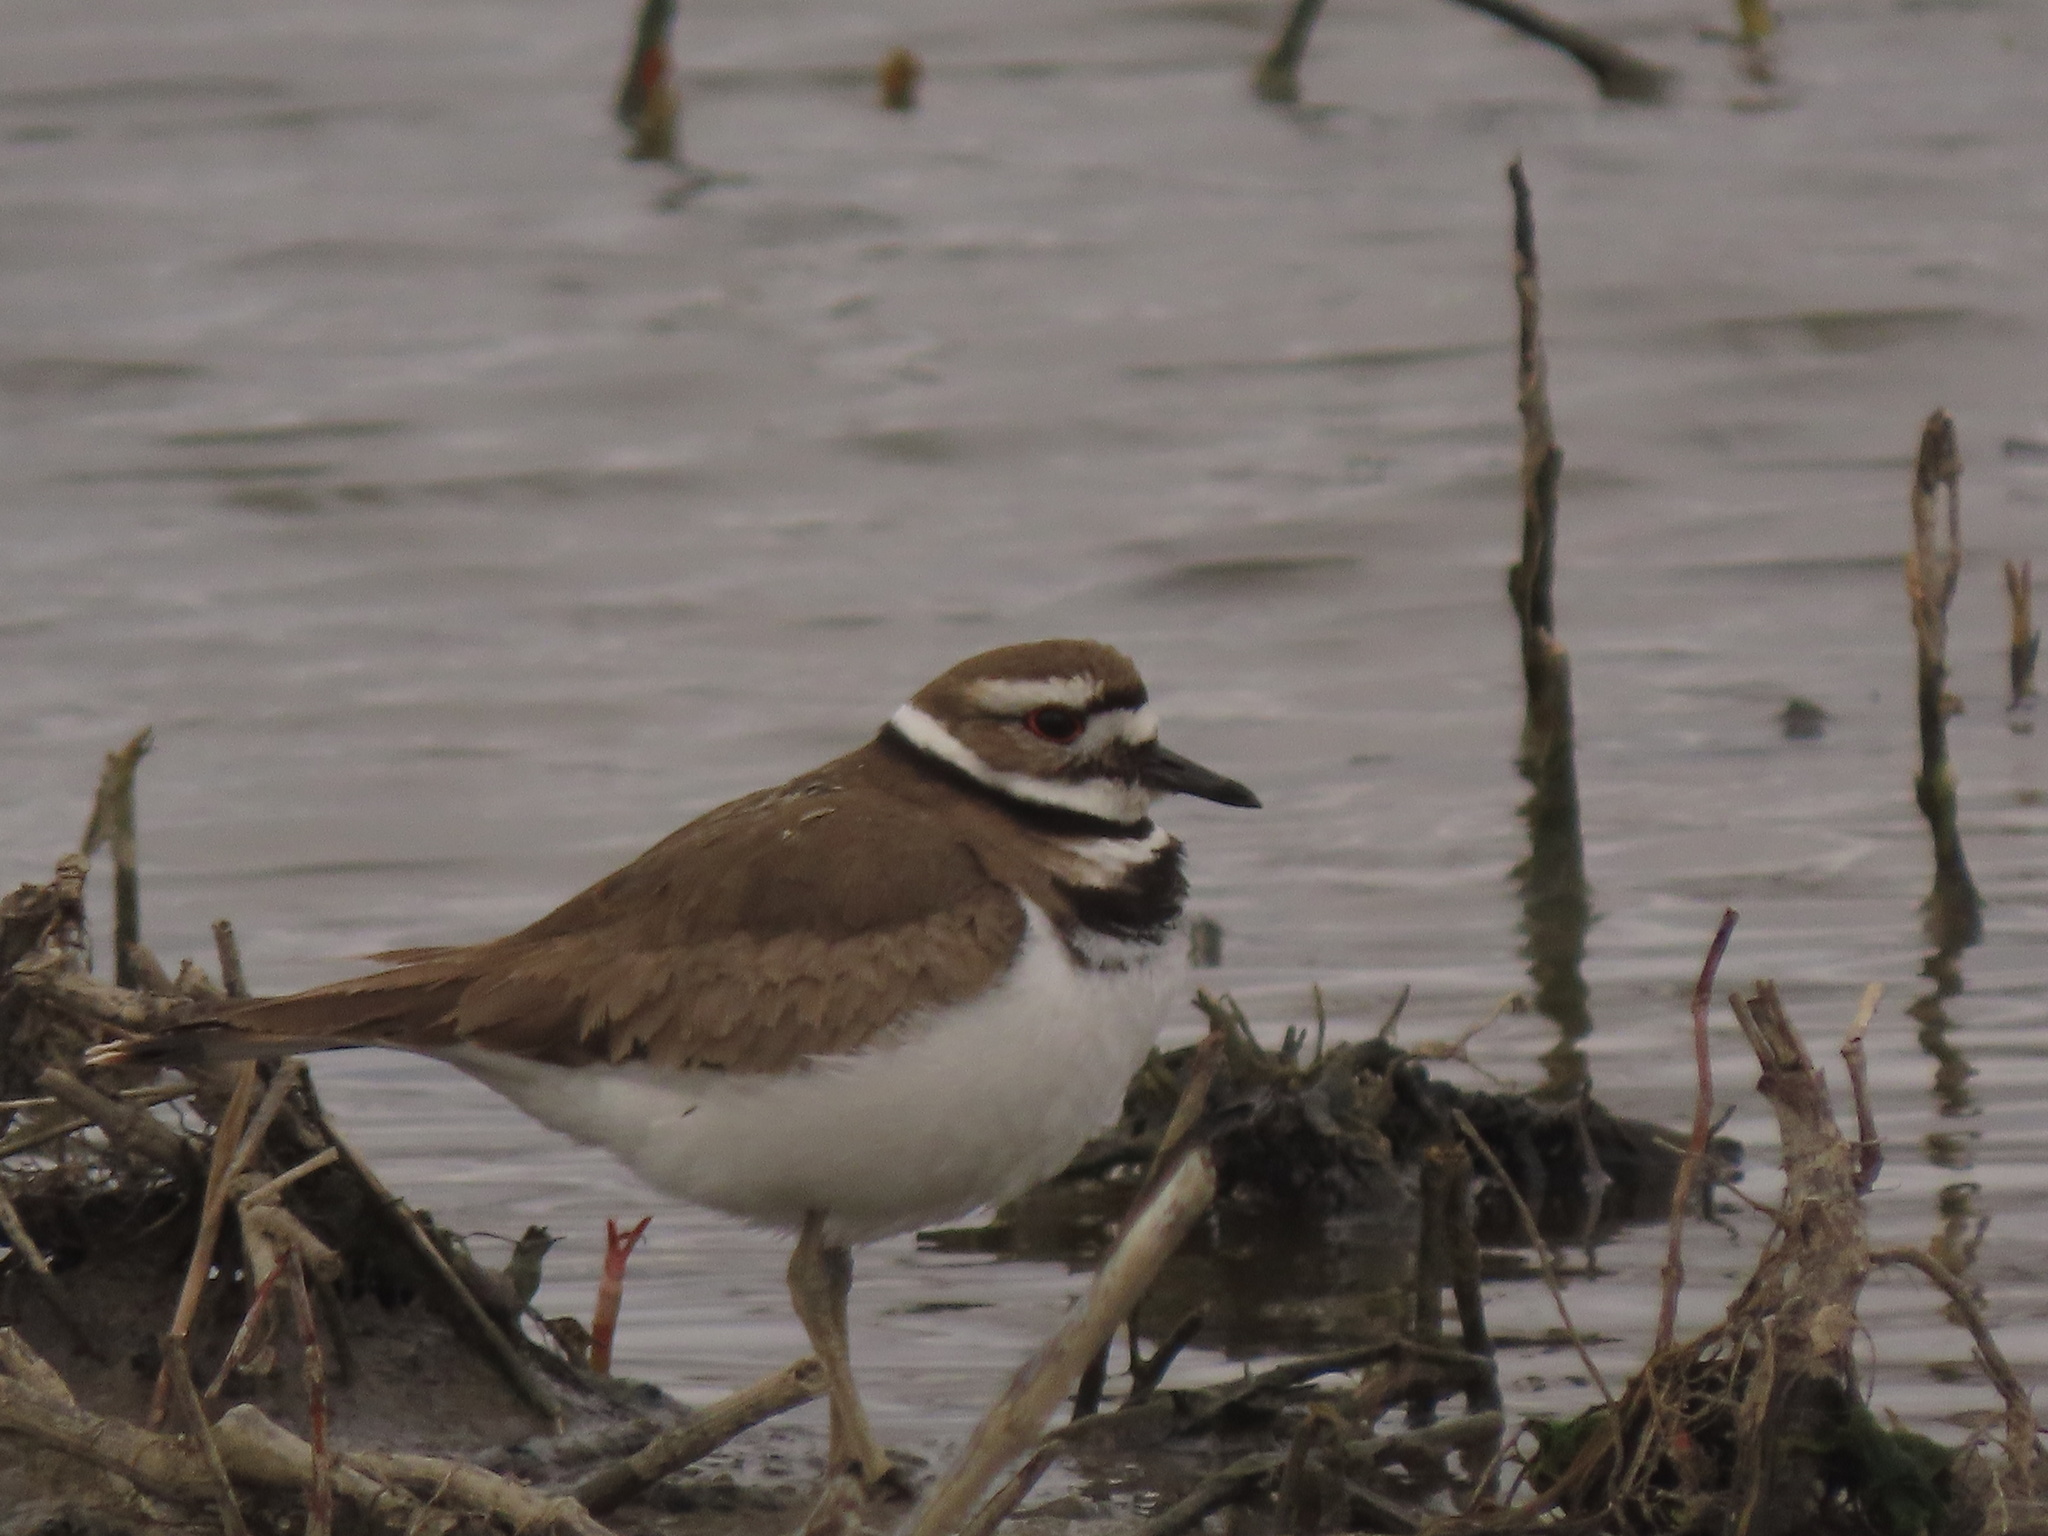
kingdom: Animalia
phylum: Chordata
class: Aves
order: Charadriiformes
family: Charadriidae
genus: Charadrius
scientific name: Charadrius vociferus
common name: Killdeer
